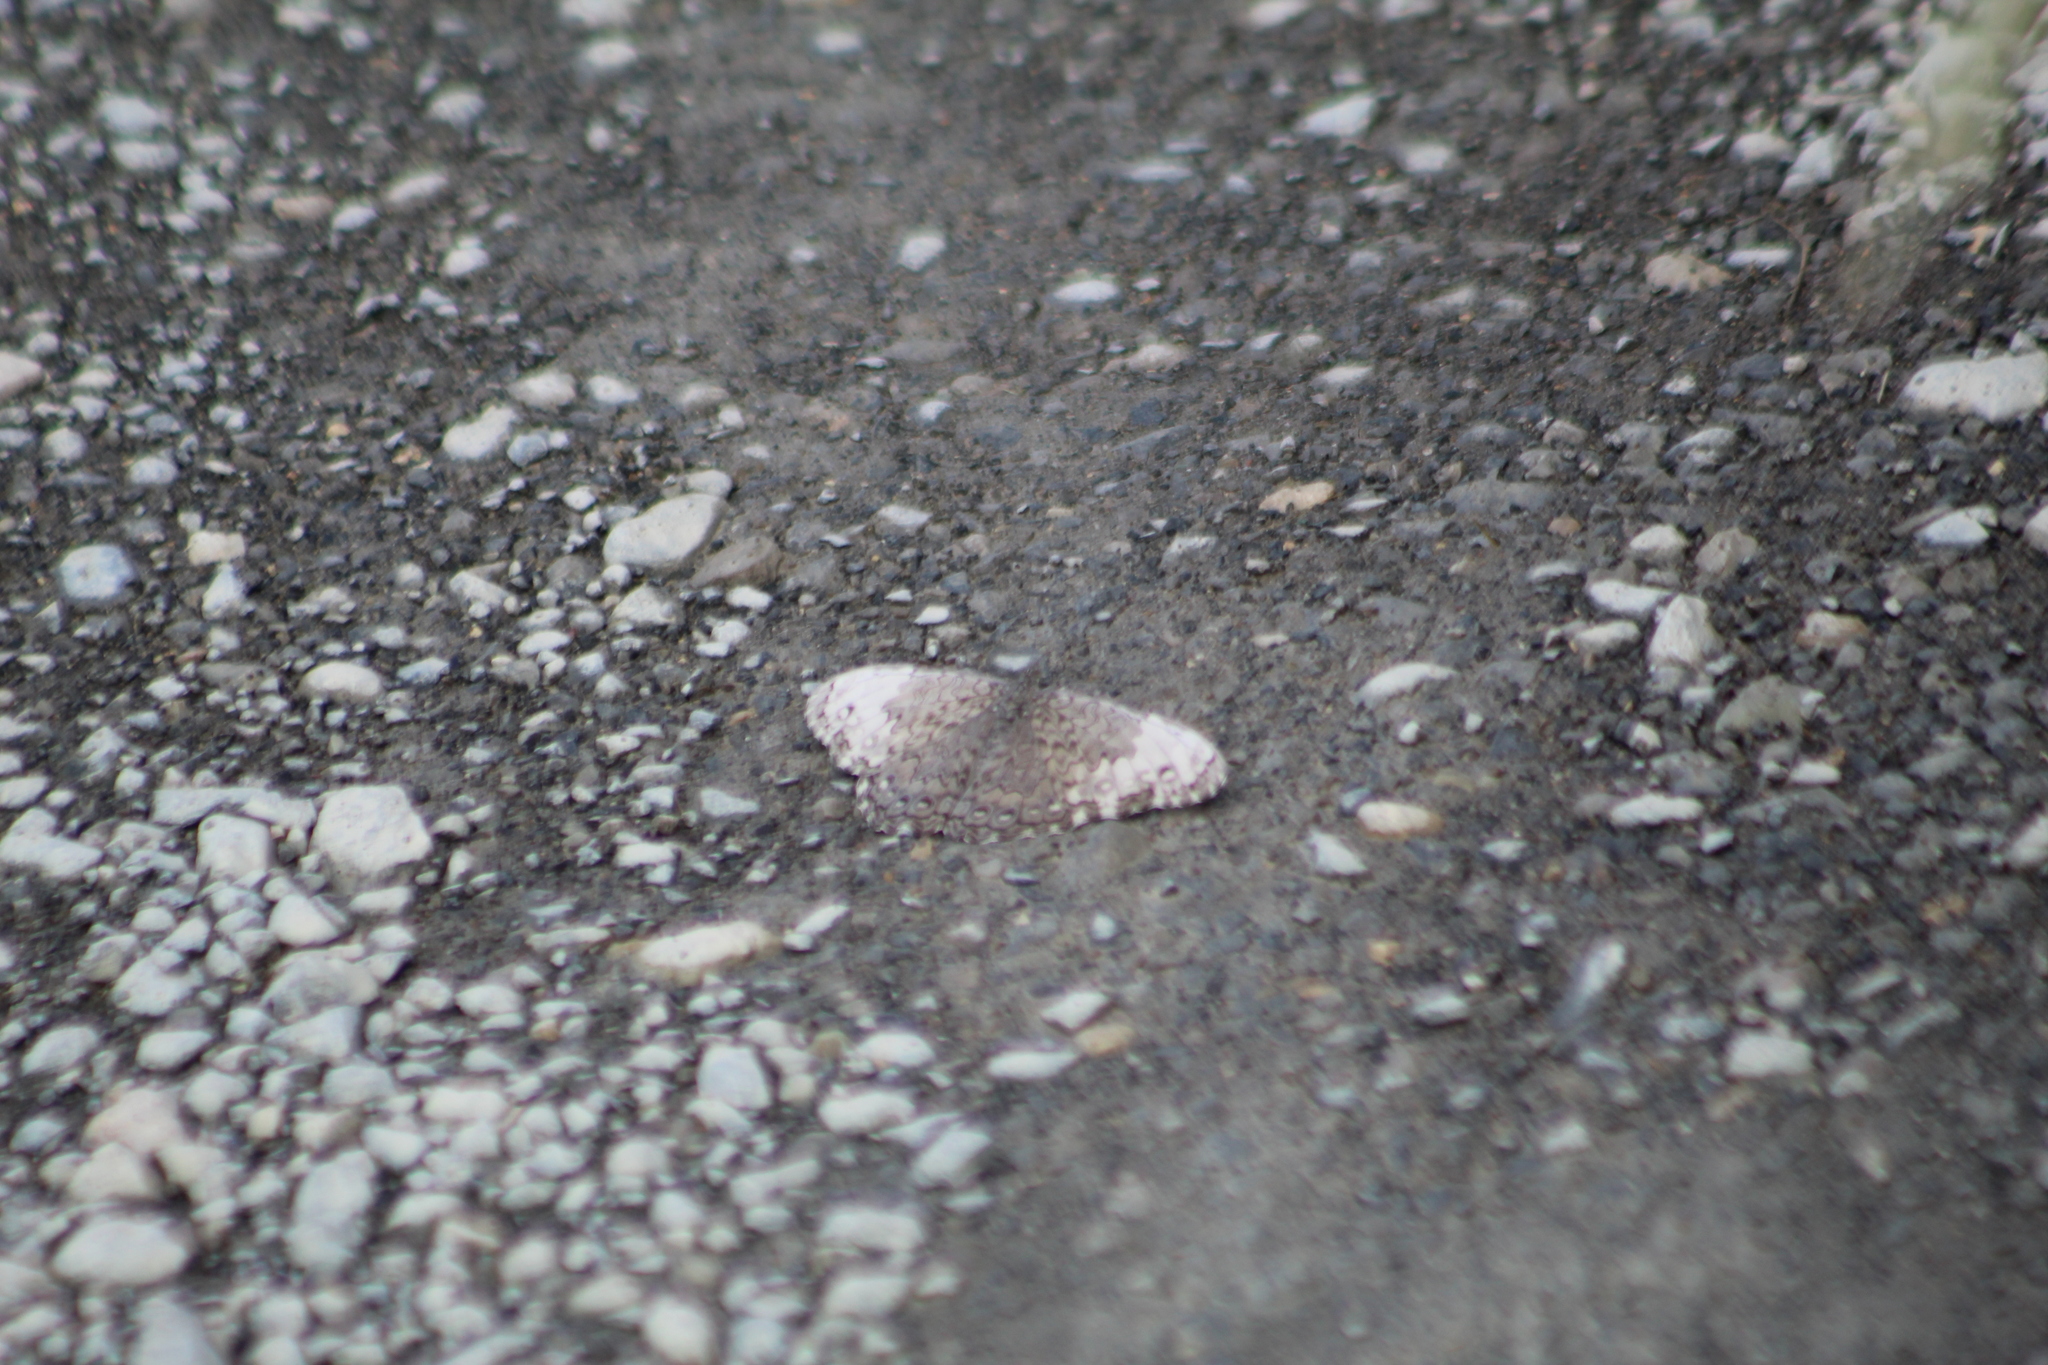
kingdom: Animalia
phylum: Arthropoda
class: Insecta
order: Lepidoptera
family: Nymphalidae
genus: Hamadryas
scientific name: Hamadryas glauconome
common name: Glaucous cracker
